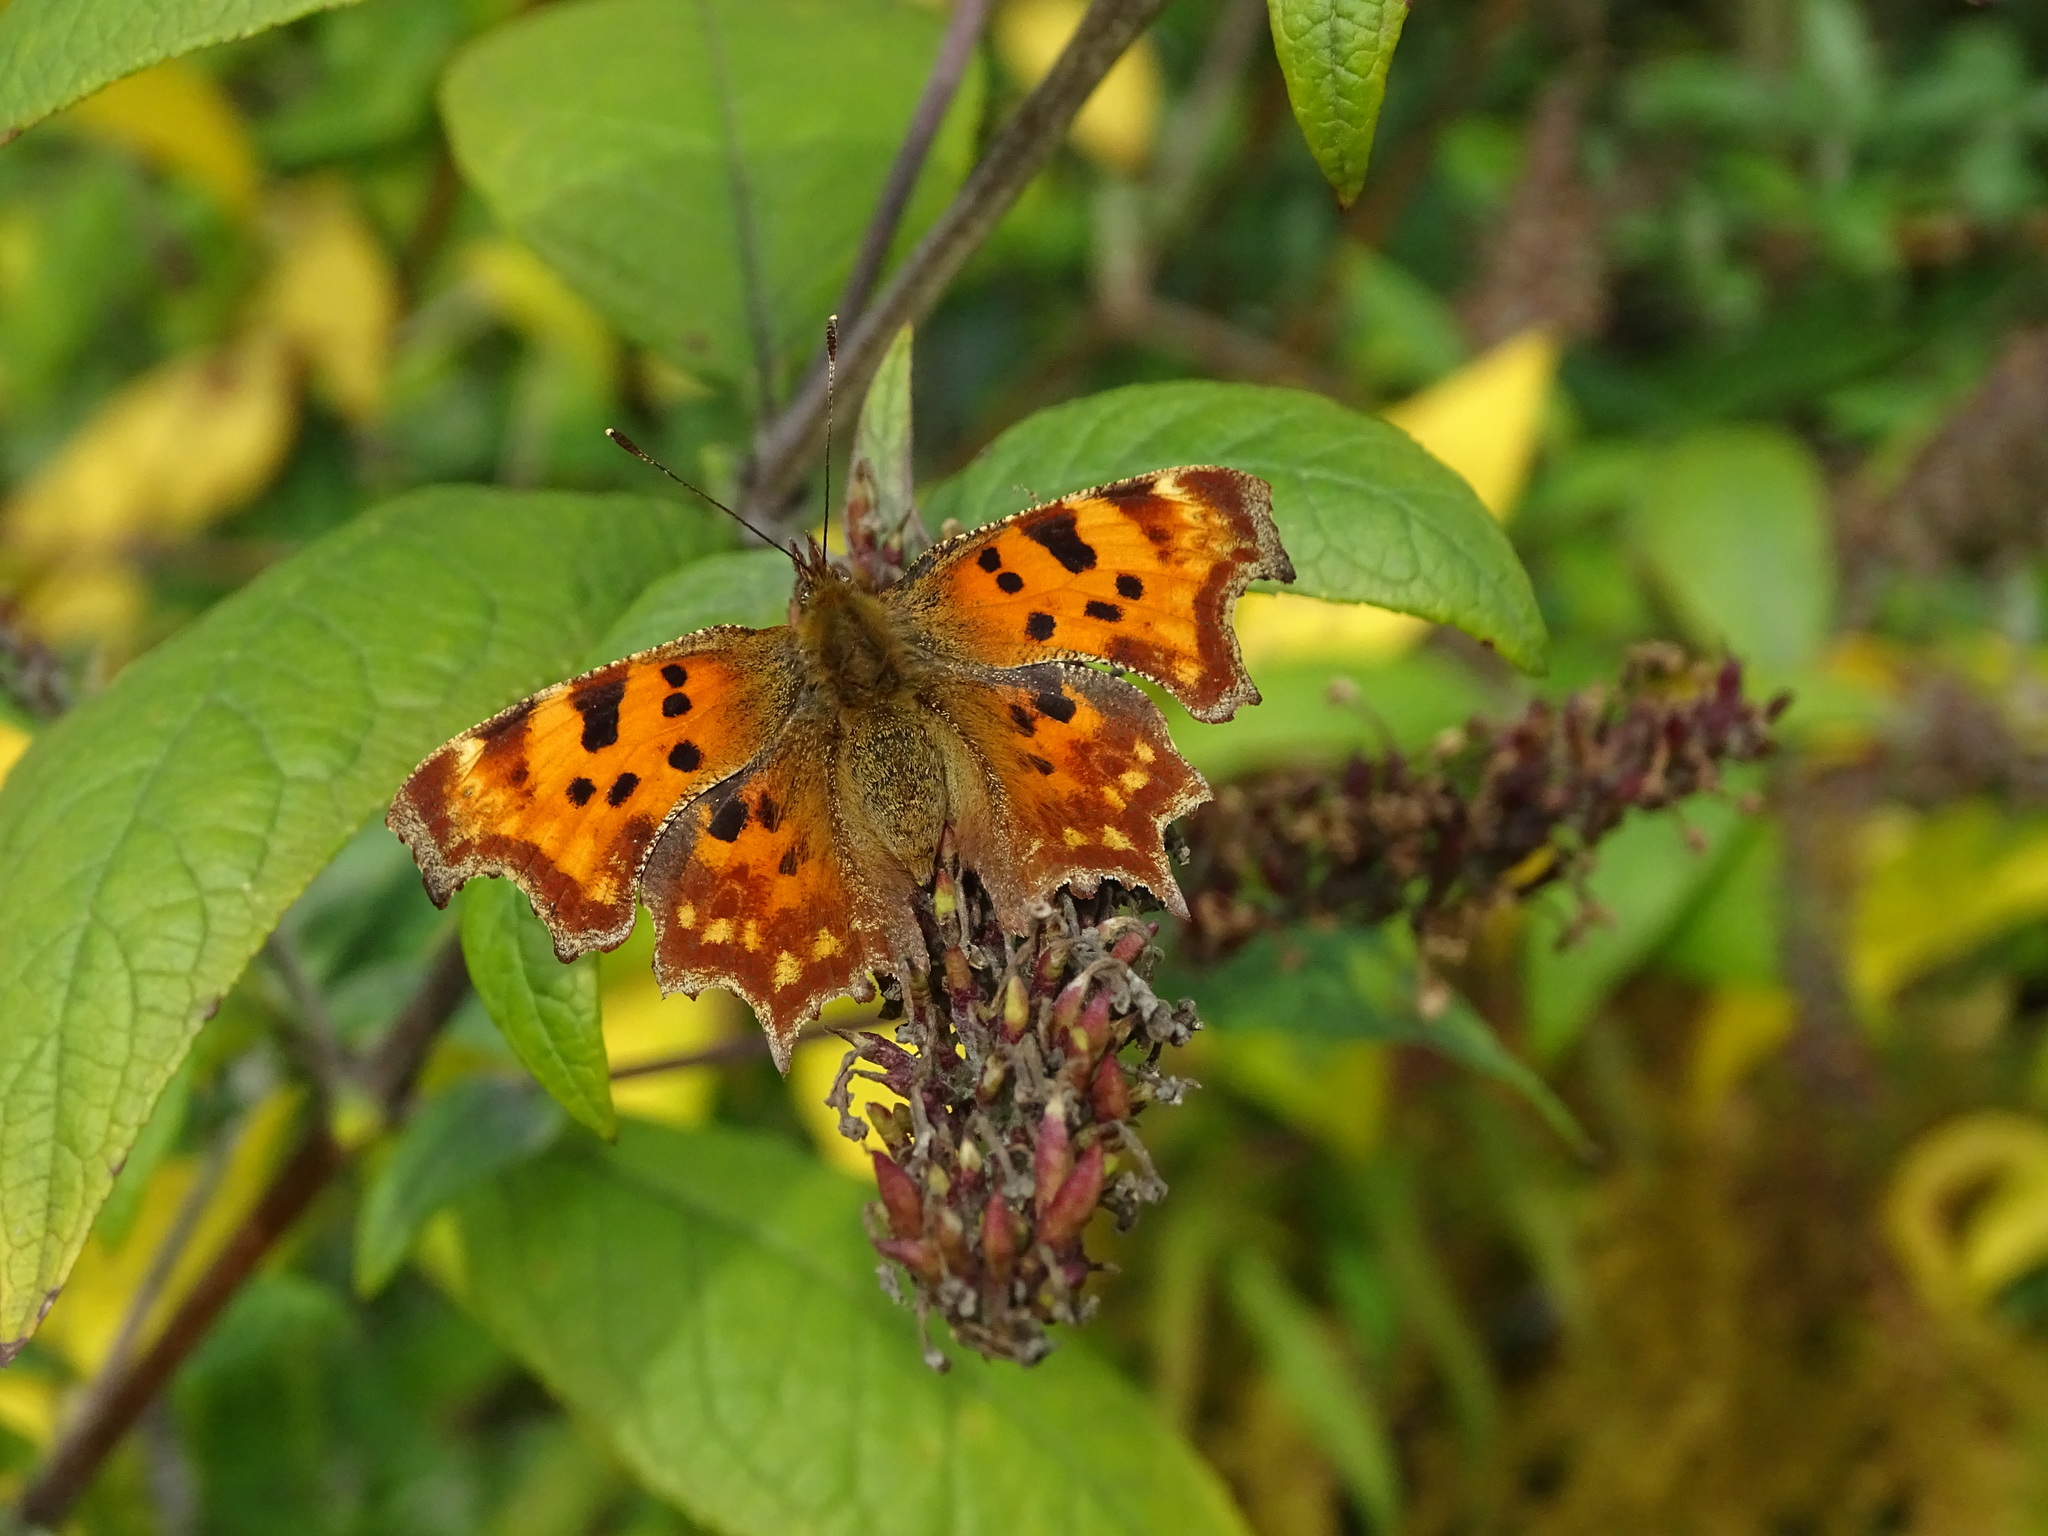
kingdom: Animalia
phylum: Arthropoda
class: Insecta
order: Lepidoptera
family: Nymphalidae
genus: Polygonia
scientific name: Polygonia c-album
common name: Comma
